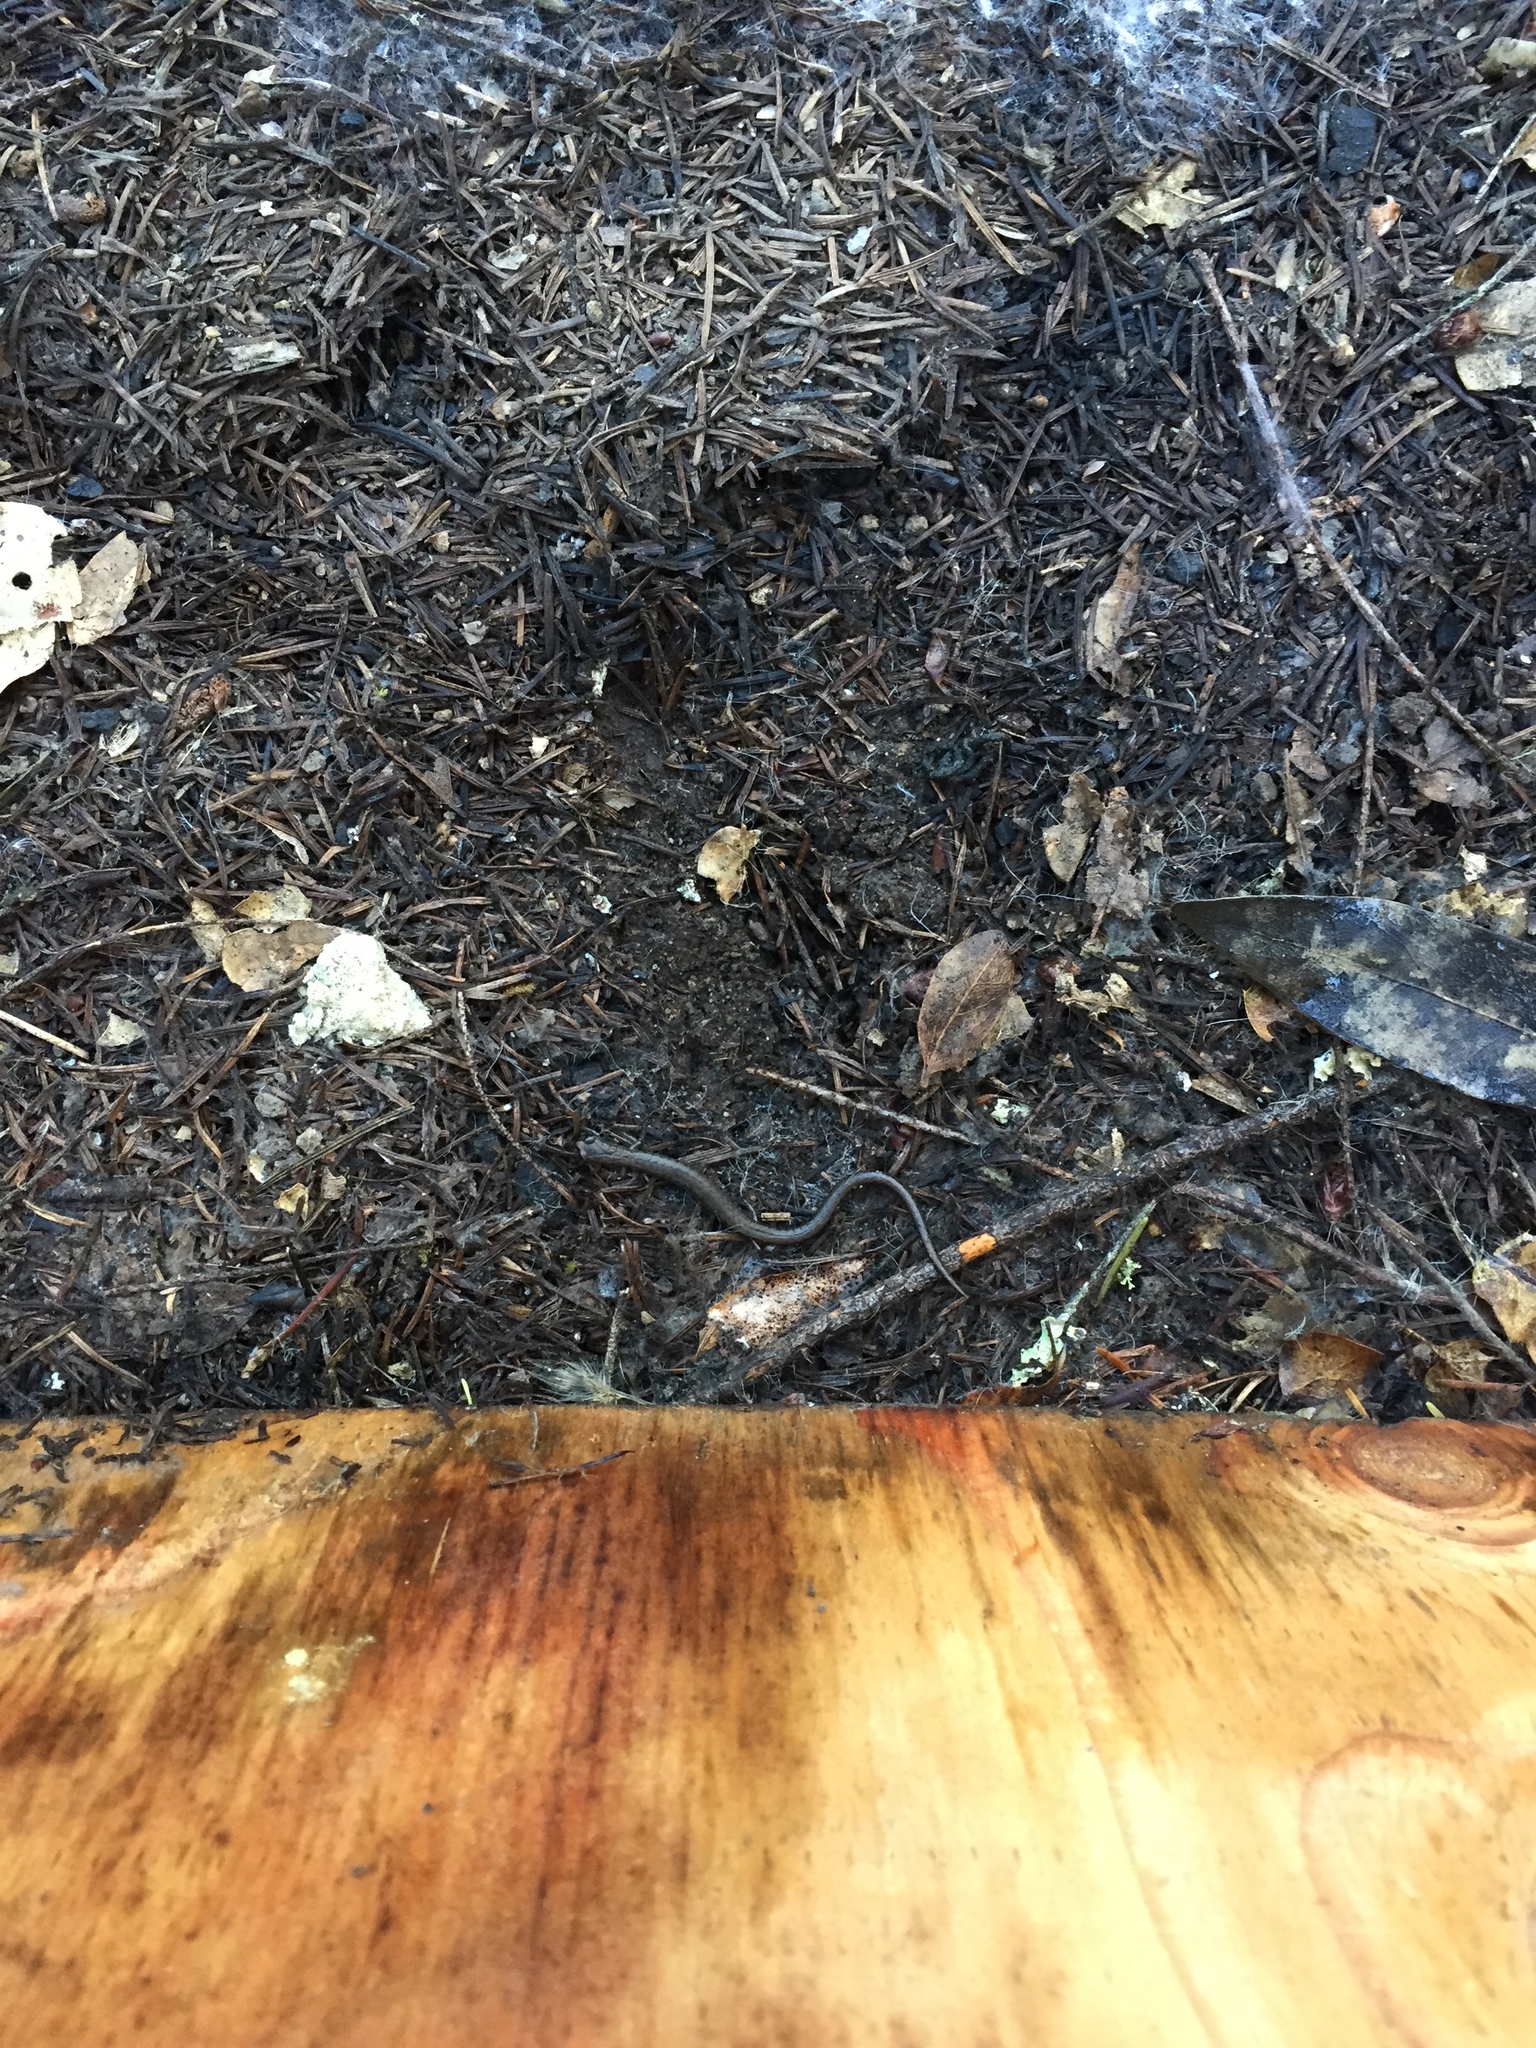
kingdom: Animalia
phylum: Chordata
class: Amphibia
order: Caudata
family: Plethodontidae
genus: Batrachoseps
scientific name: Batrachoseps attenuatus
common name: California slender salamander
